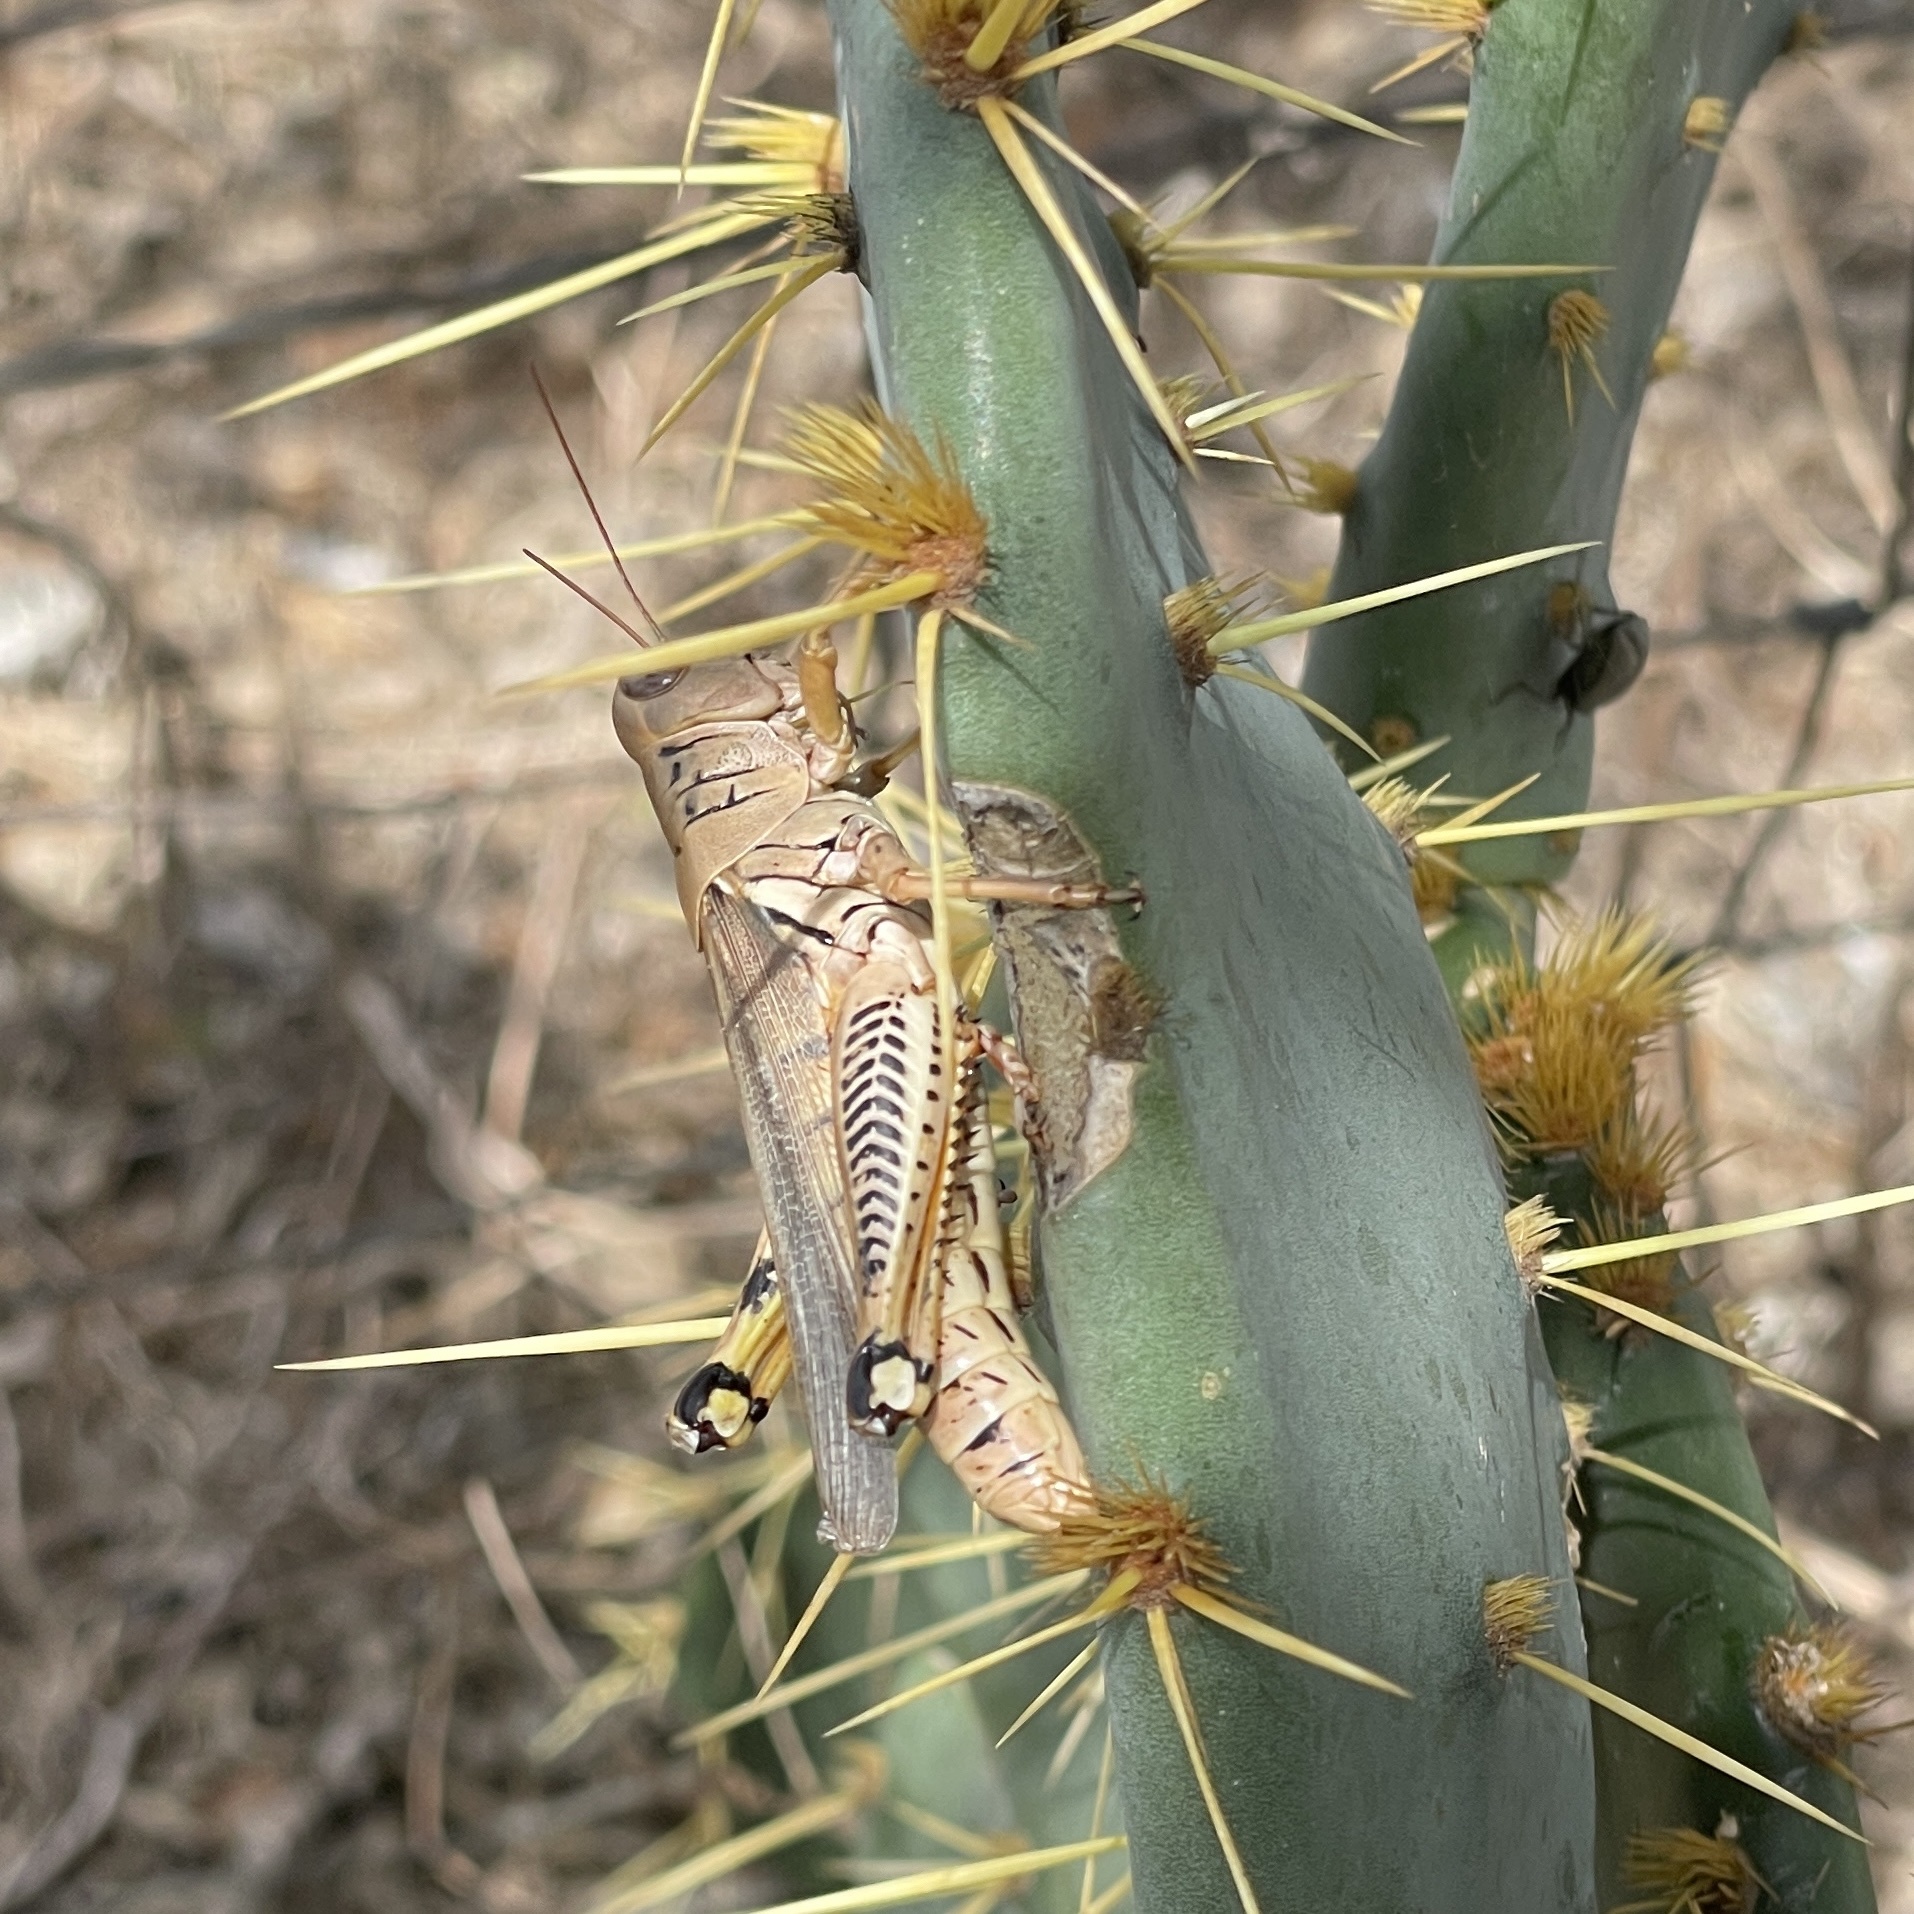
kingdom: Animalia
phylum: Arthropoda
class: Insecta
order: Orthoptera
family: Acrididae
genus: Melanoplus
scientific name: Melanoplus differentialis
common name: Differential grasshopper
